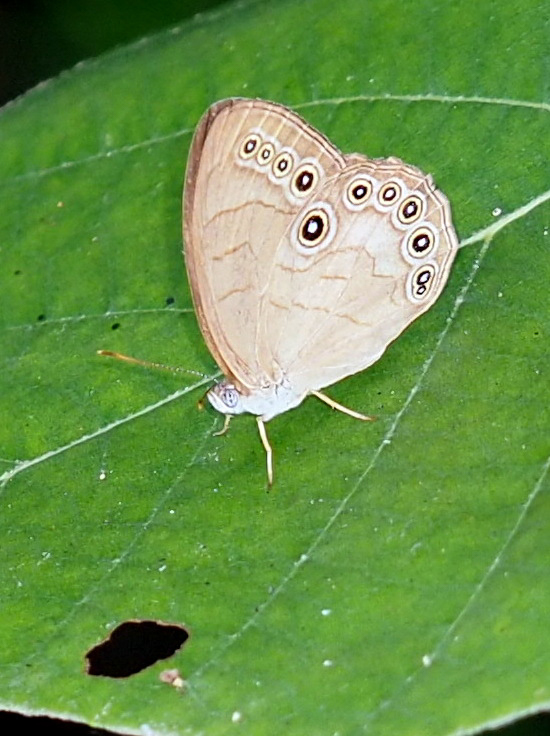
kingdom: Animalia
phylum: Arthropoda
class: Insecta
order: Lepidoptera
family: Nymphalidae
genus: Lethe
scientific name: Lethe eurydice
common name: Eyed brown
